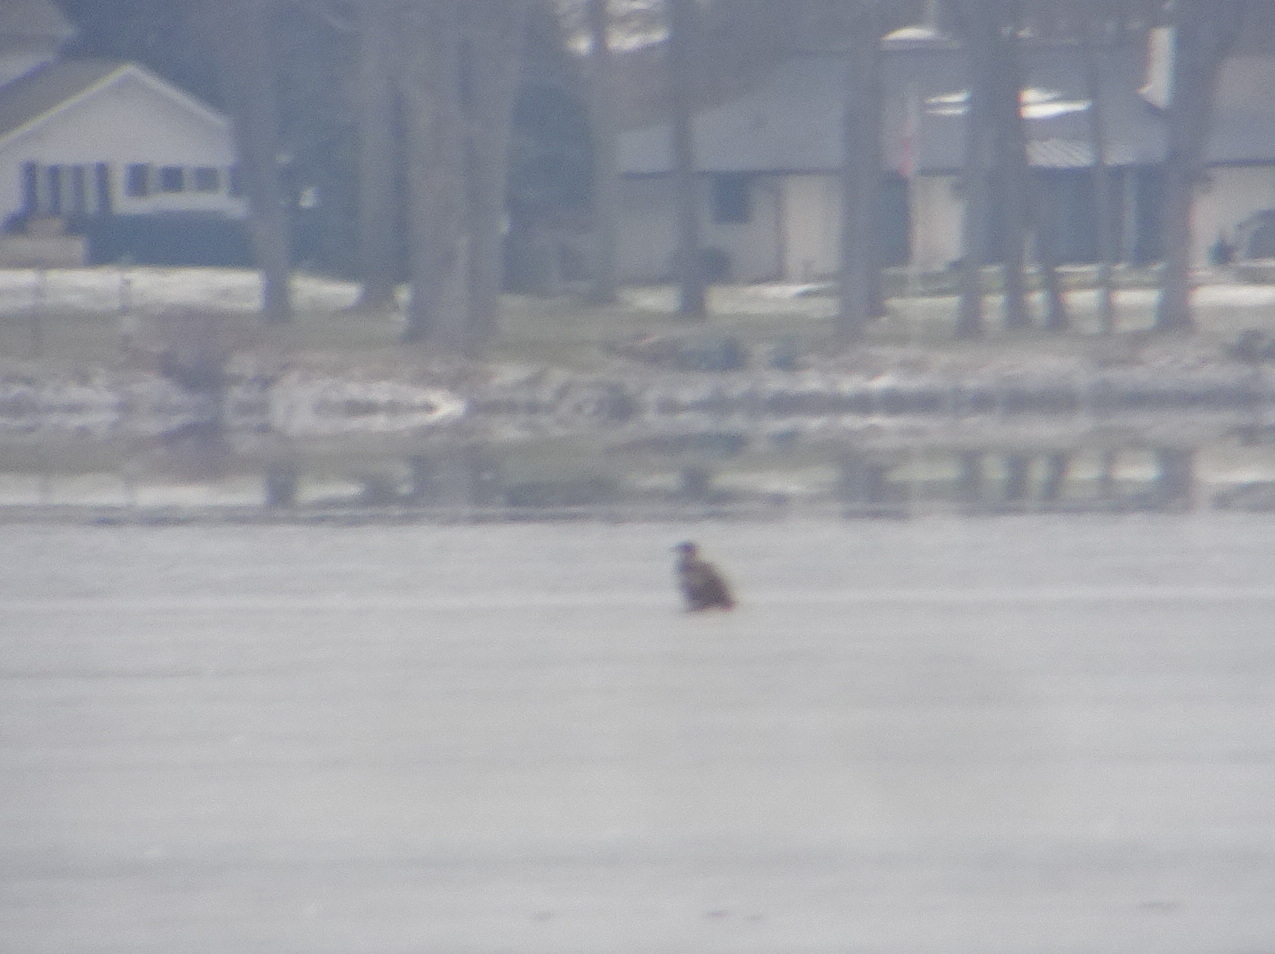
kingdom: Animalia
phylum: Chordata
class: Aves
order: Accipitriformes
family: Accipitridae
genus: Haliaeetus
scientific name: Haliaeetus leucocephalus
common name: Bald eagle
